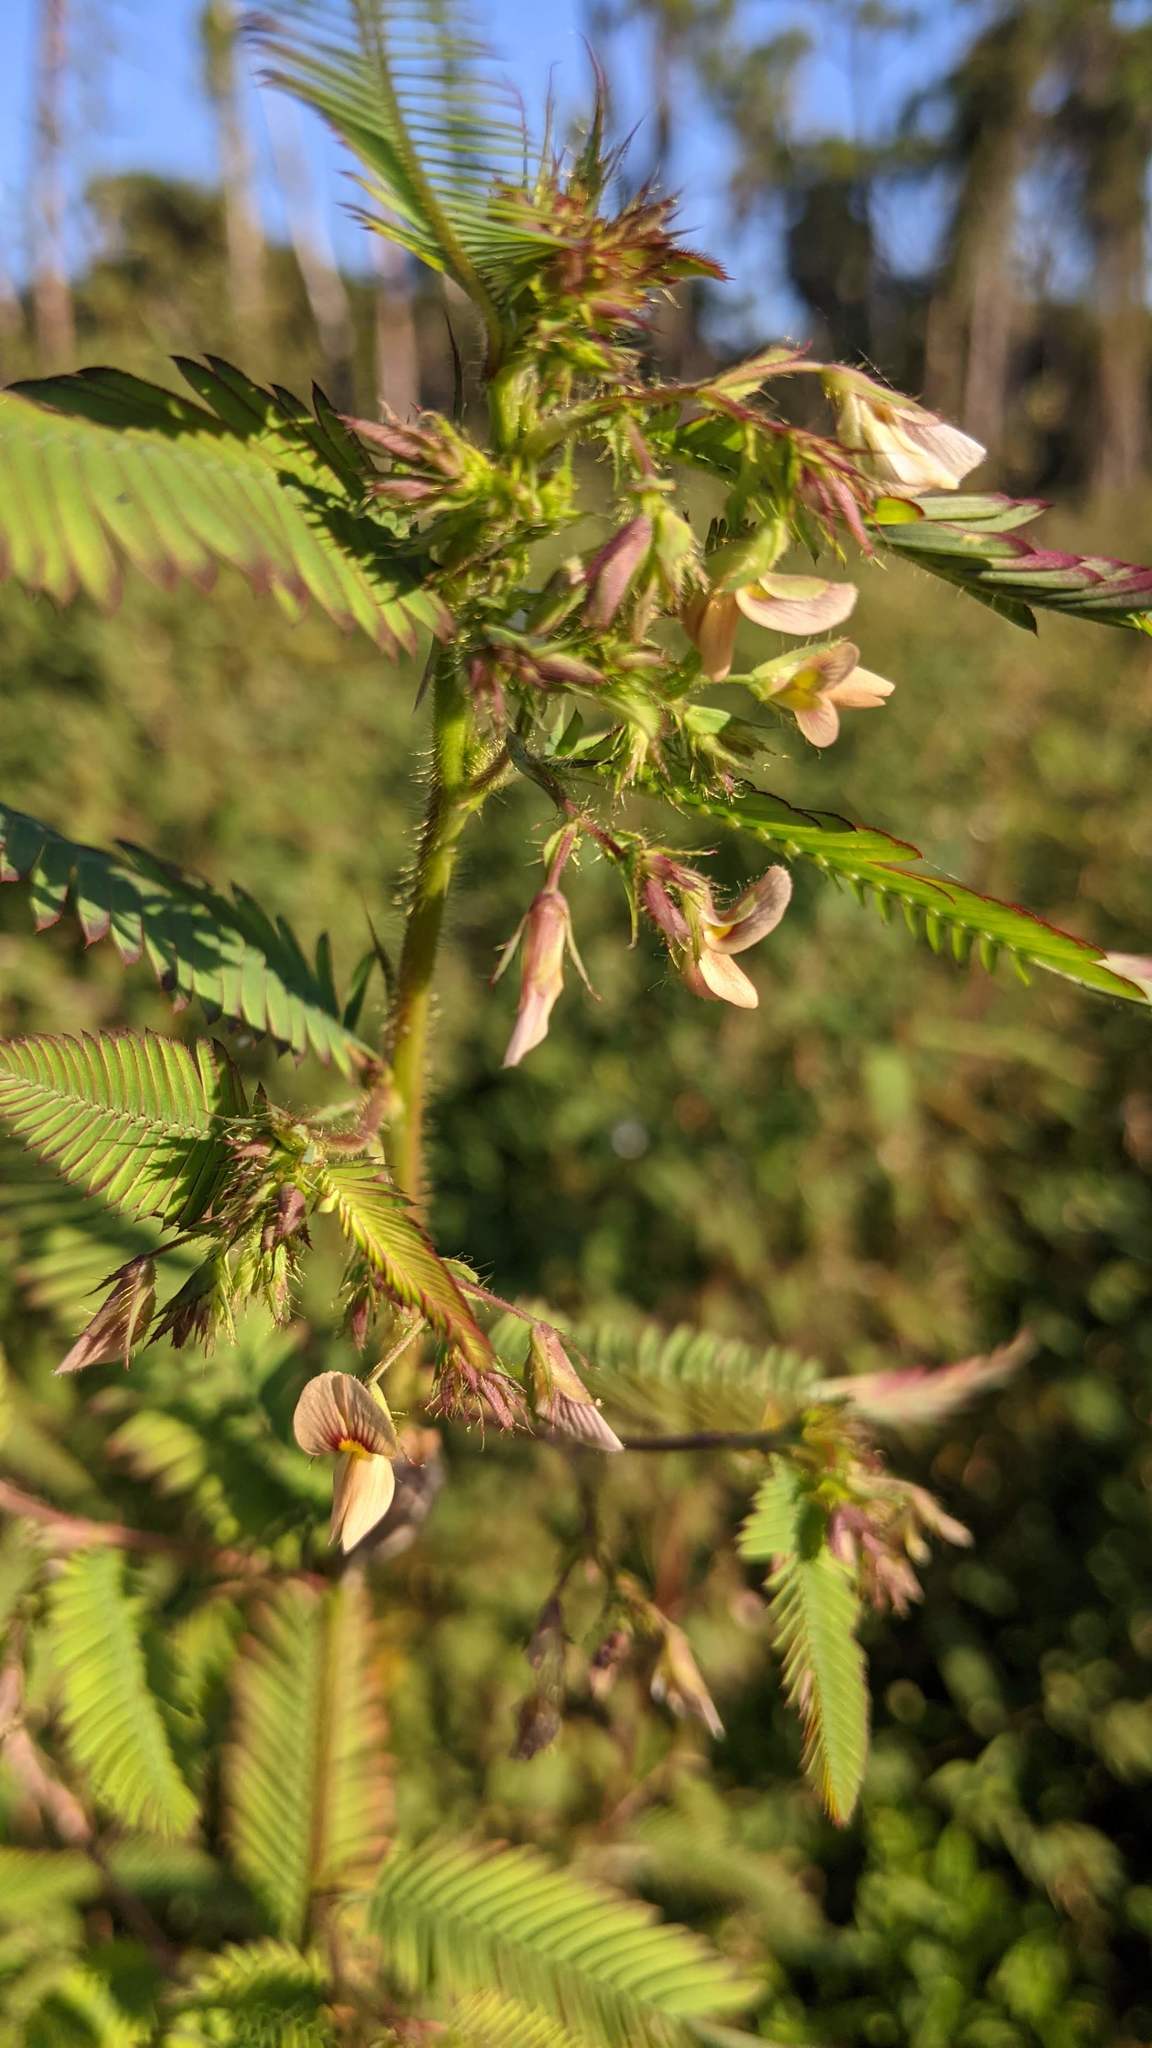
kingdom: Plantae
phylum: Tracheophyta
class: Magnoliopsida
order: Fabales
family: Fabaceae
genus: Aeschynomene
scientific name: Aeschynomene americana
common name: Joint-vetch
